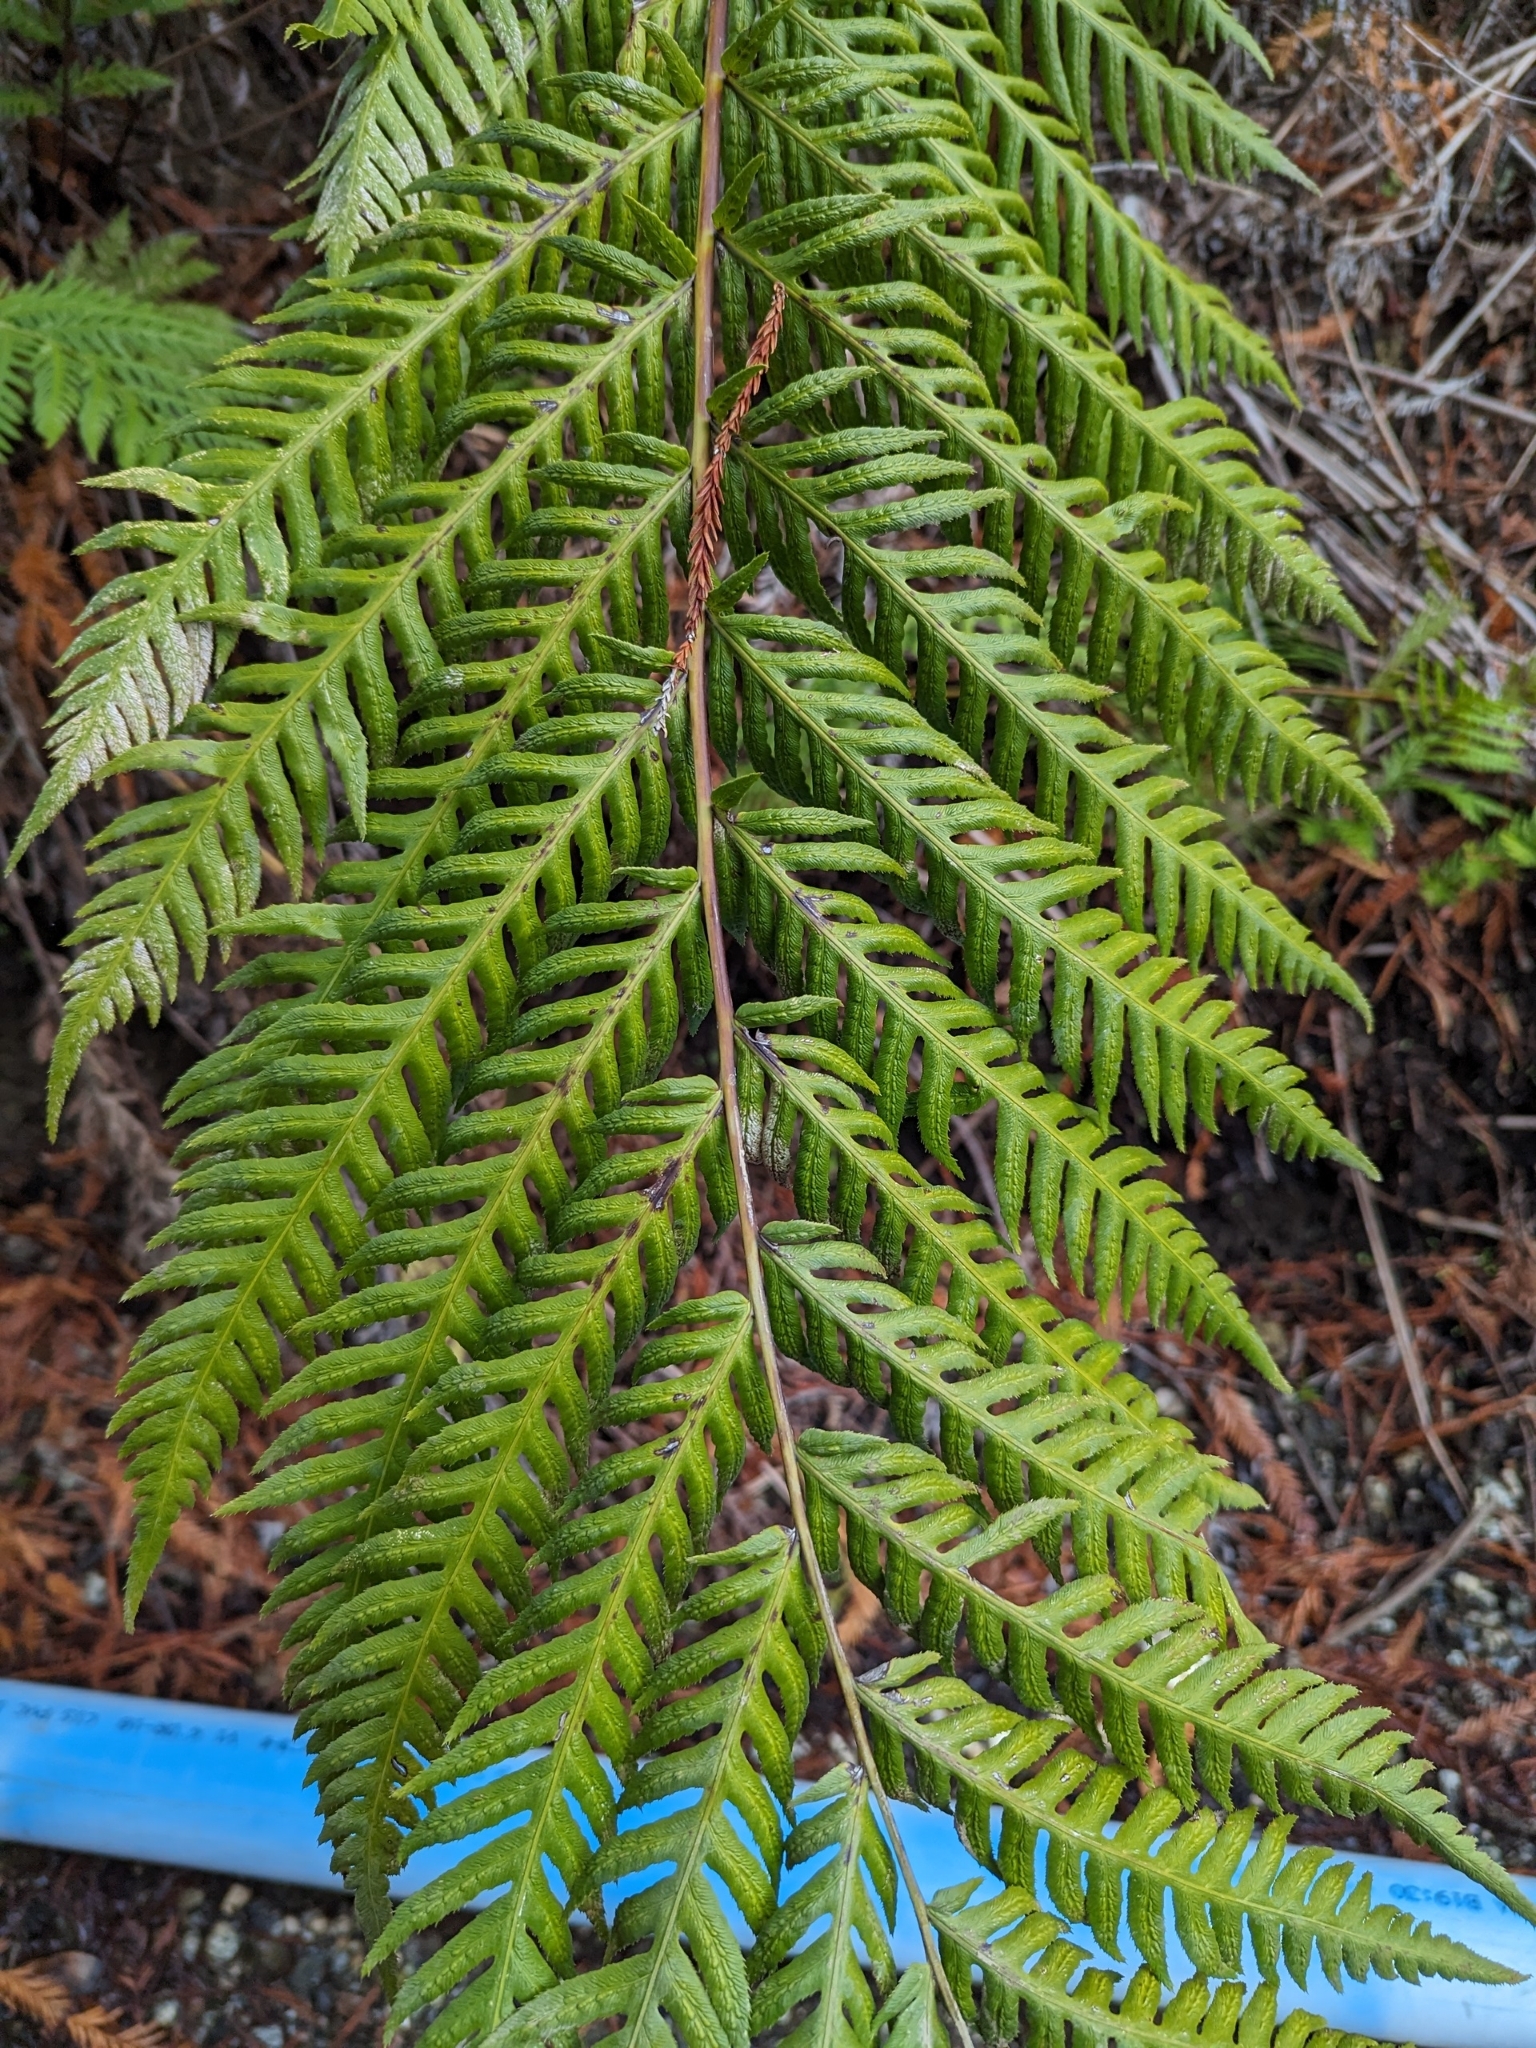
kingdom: Plantae
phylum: Tracheophyta
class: Polypodiopsida
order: Polypodiales
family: Blechnaceae
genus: Woodwardia
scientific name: Woodwardia fimbriata
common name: Giant chain fern
